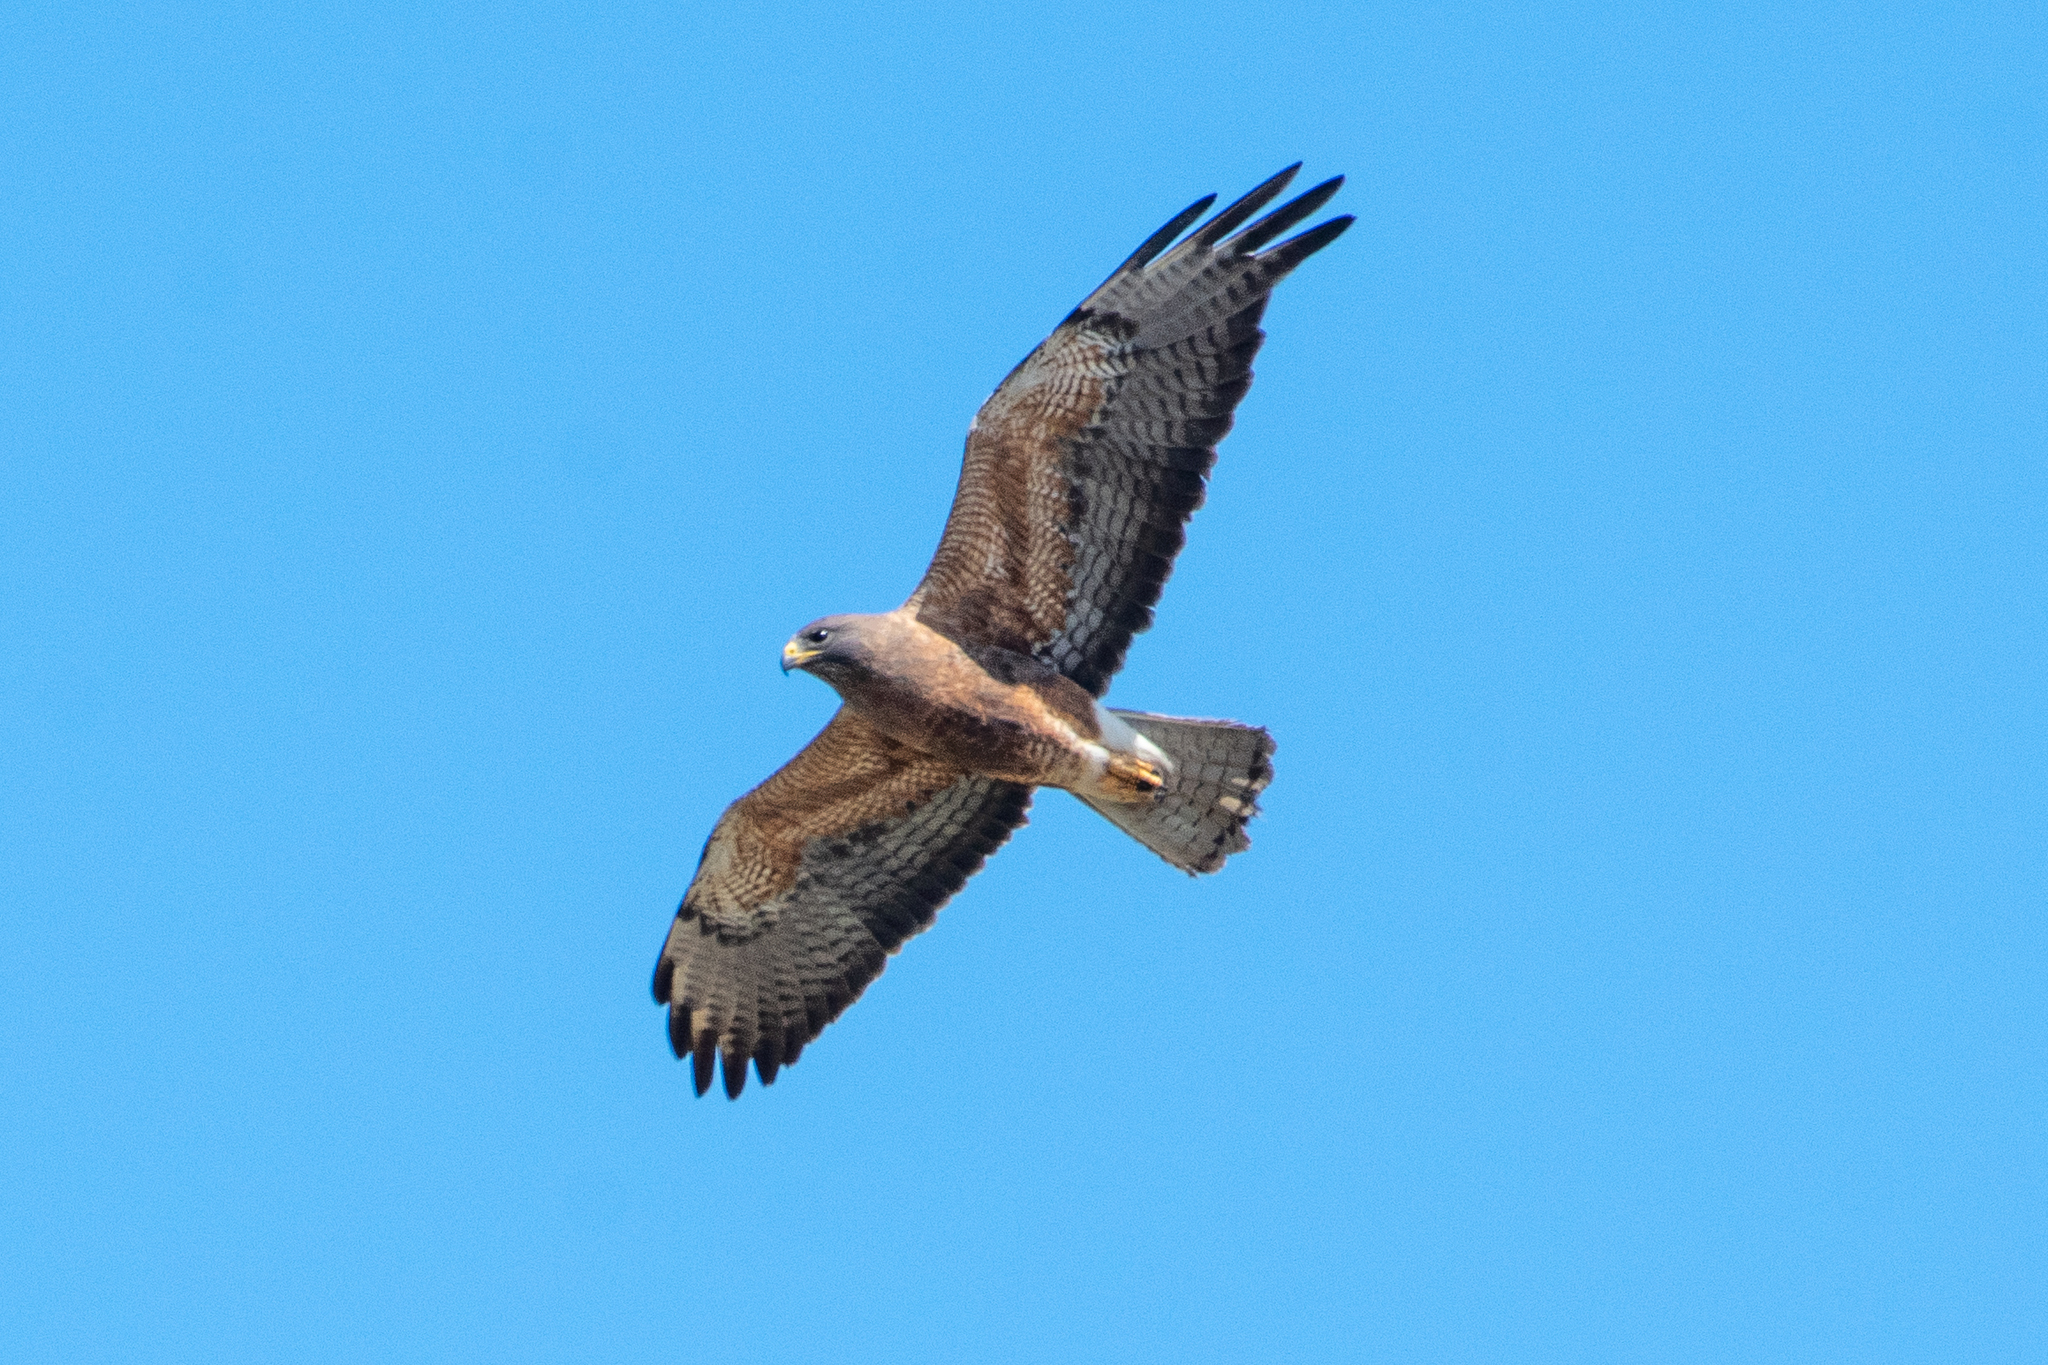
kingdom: Animalia
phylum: Chordata
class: Aves
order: Accipitriformes
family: Accipitridae
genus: Buteo
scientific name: Buteo swainsoni
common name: Swainson's hawk
